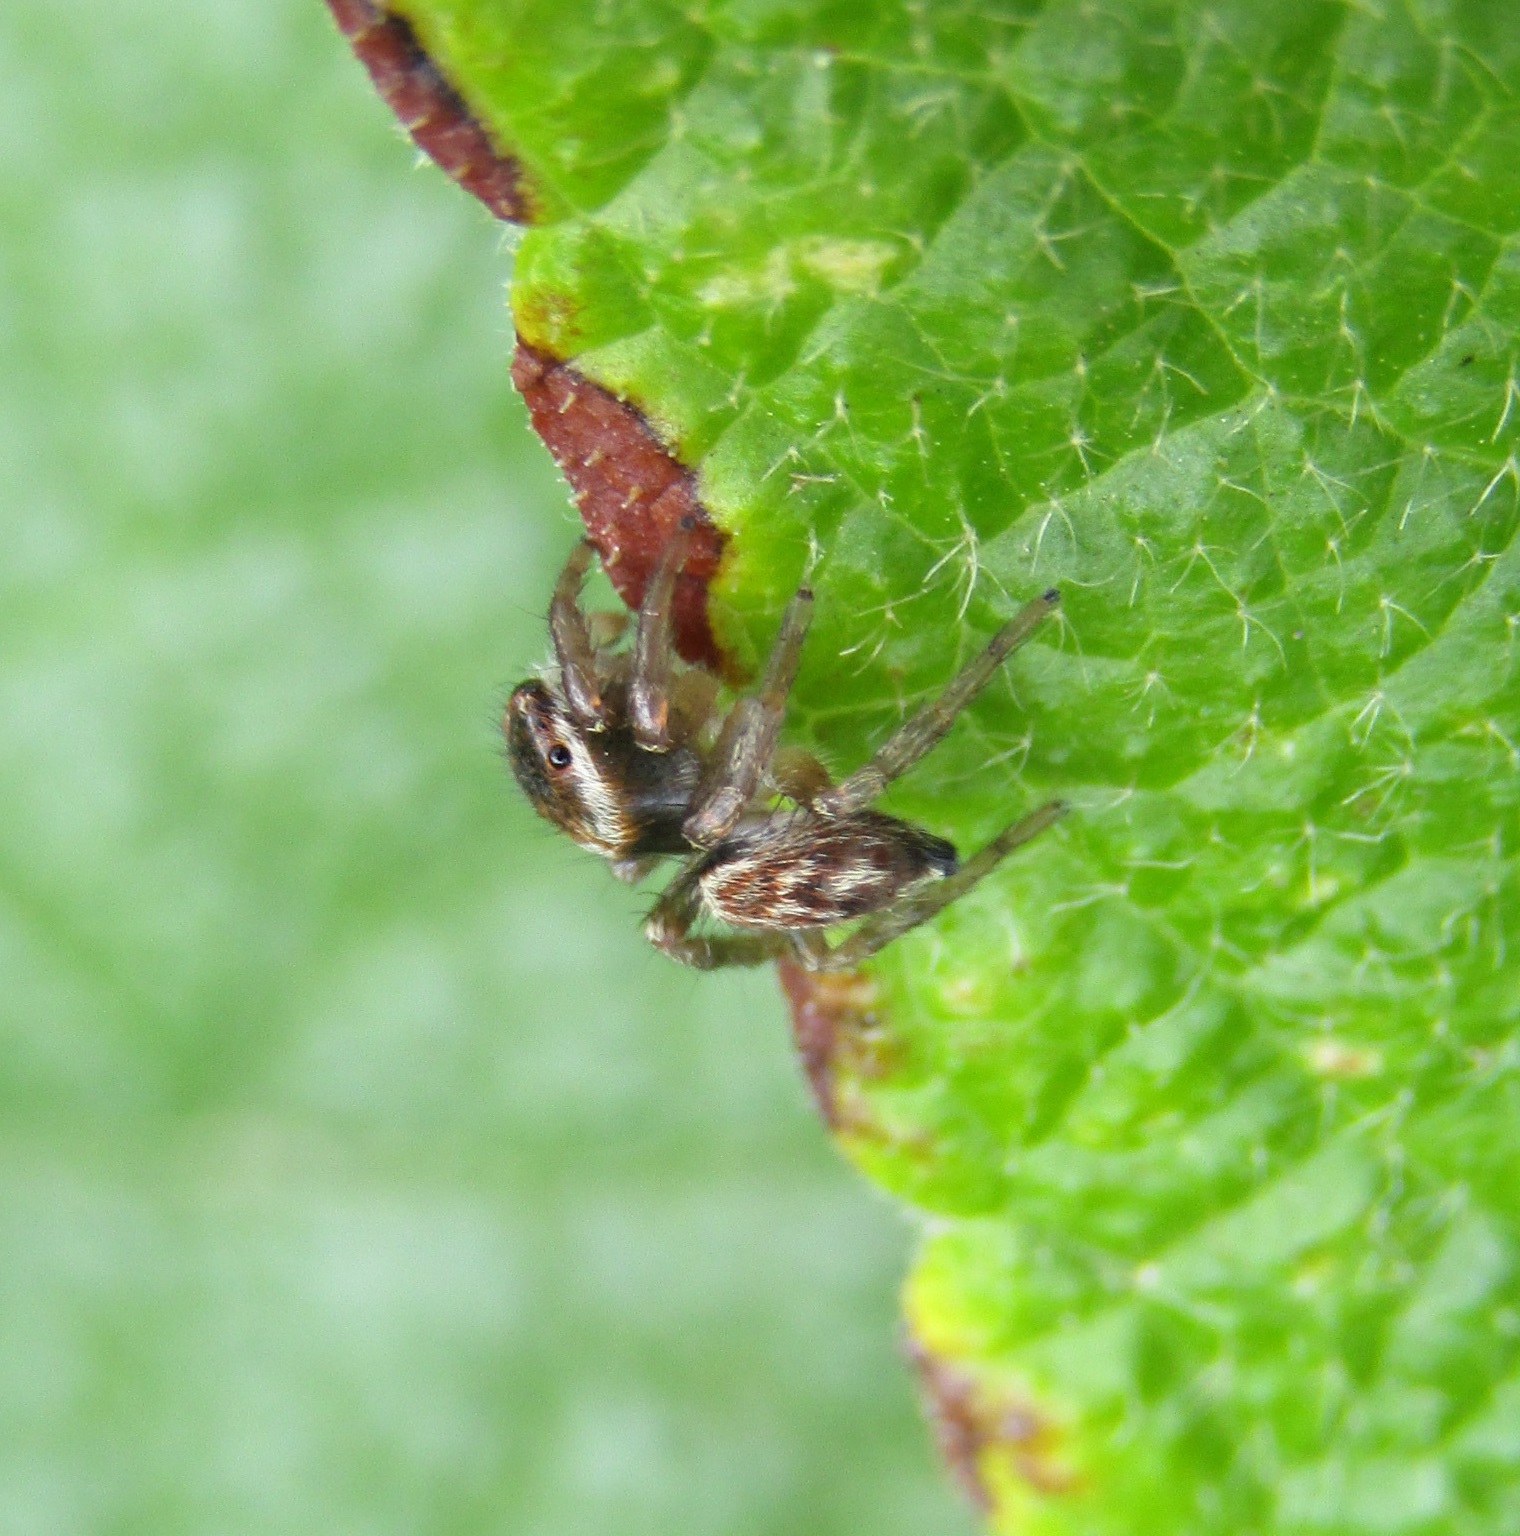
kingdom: Animalia
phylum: Arthropoda
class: Arachnida
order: Araneae
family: Salticidae
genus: Maratus
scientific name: Maratus griseus
